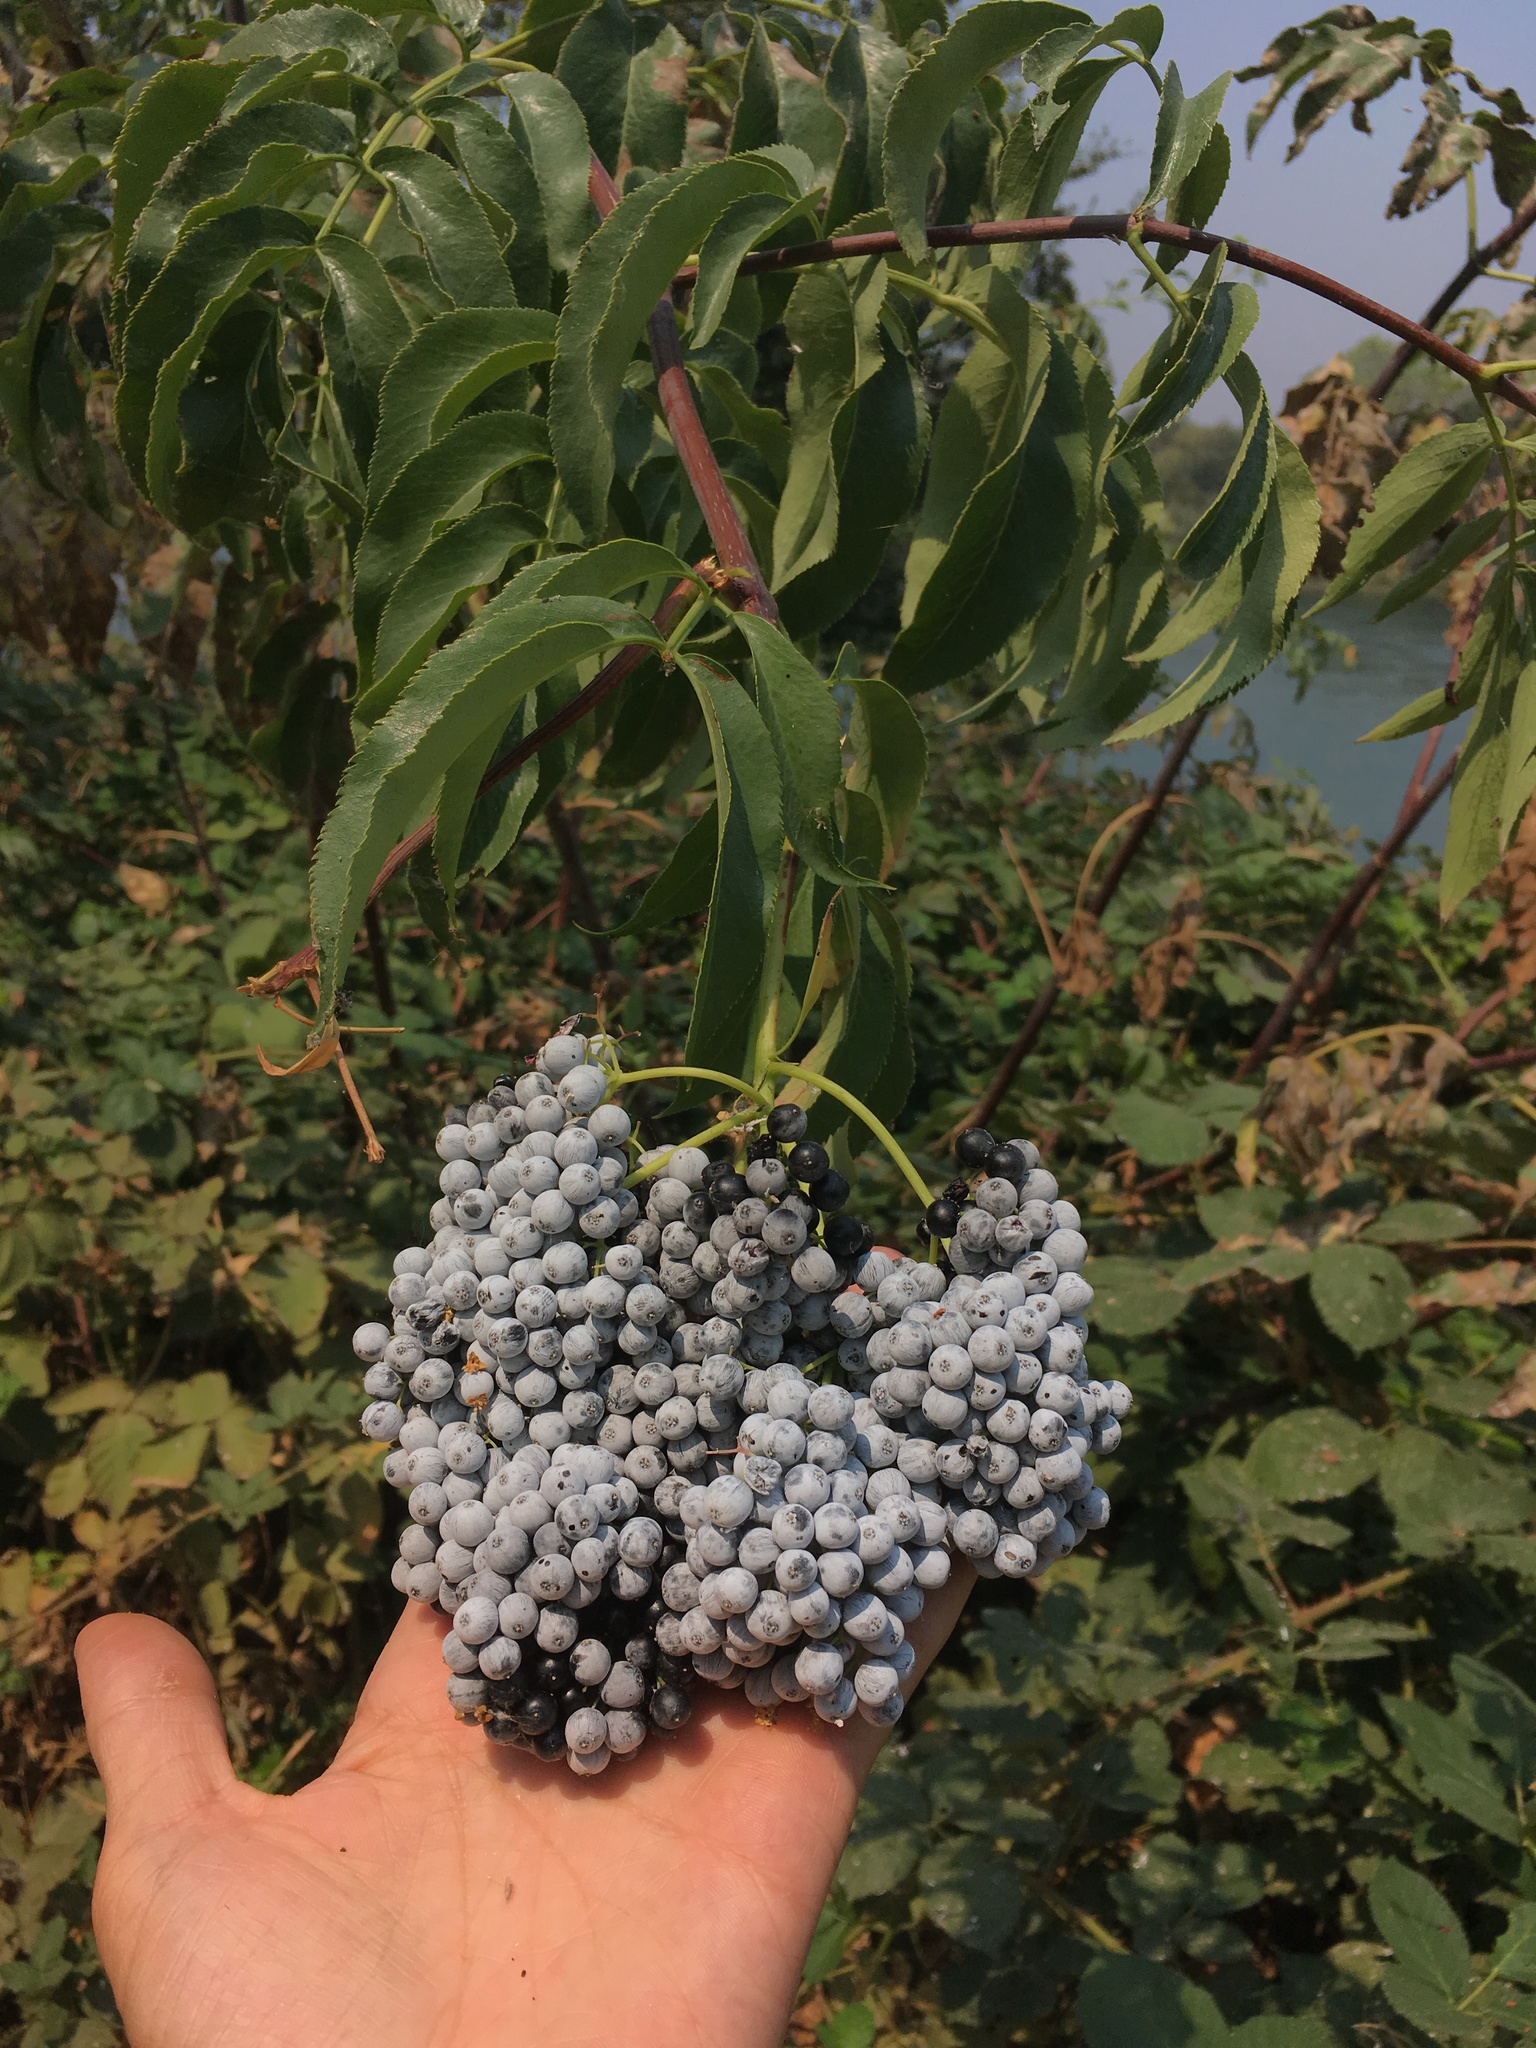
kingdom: Plantae
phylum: Tracheophyta
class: Magnoliopsida
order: Dipsacales
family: Viburnaceae
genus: Sambucus
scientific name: Sambucus cerulea
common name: Blue elder
